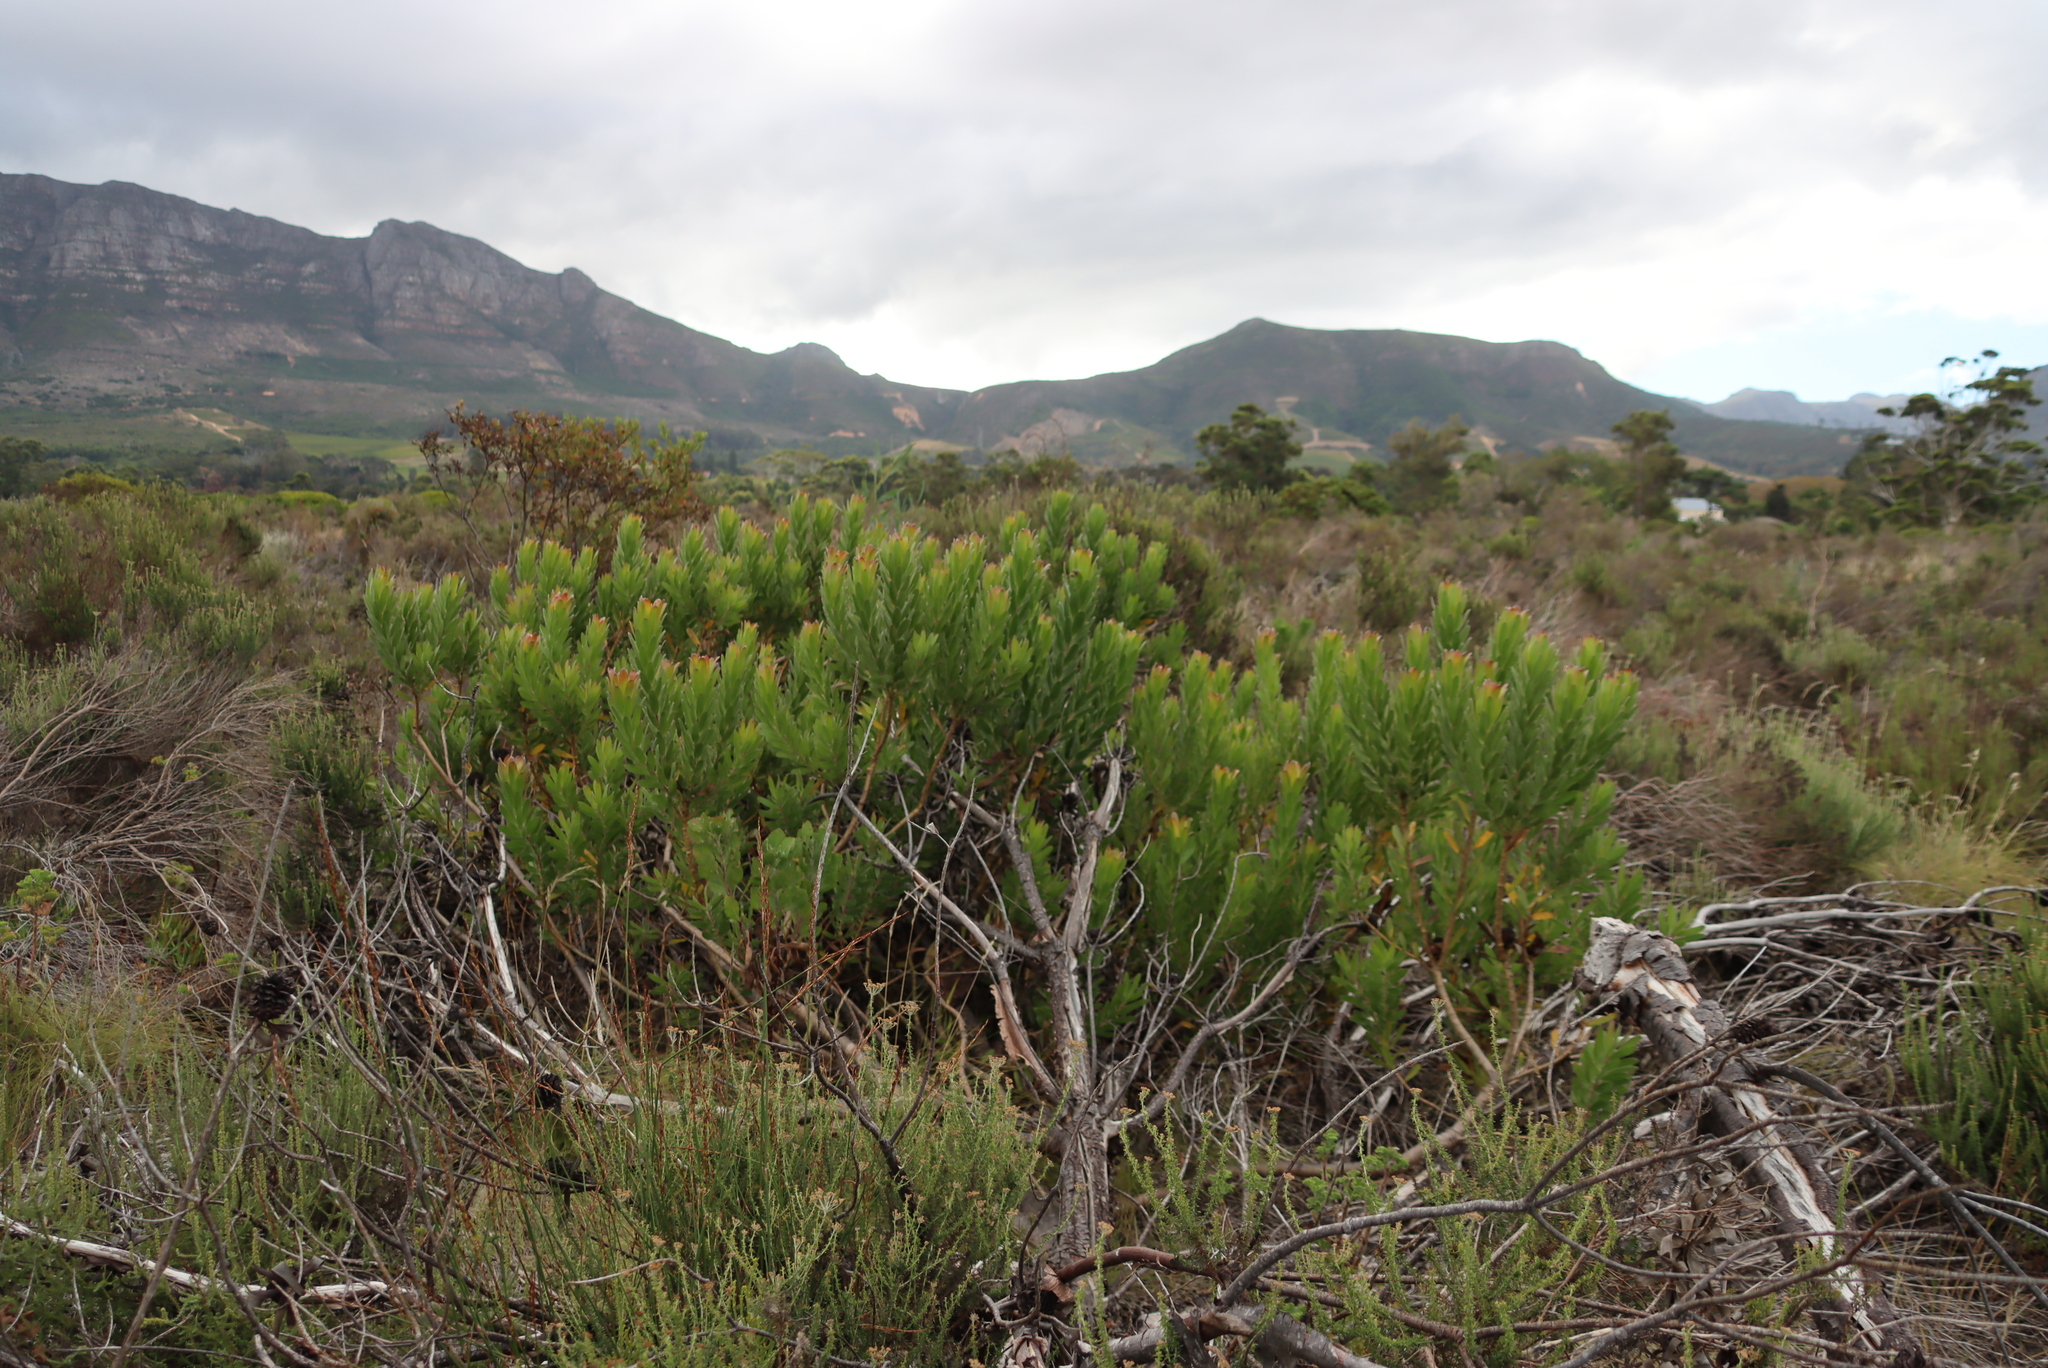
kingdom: Plantae
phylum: Tracheophyta
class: Magnoliopsida
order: Proteales
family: Proteaceae
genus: Leucadendron
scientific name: Leucadendron laureolum
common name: Golden sunshinebush
